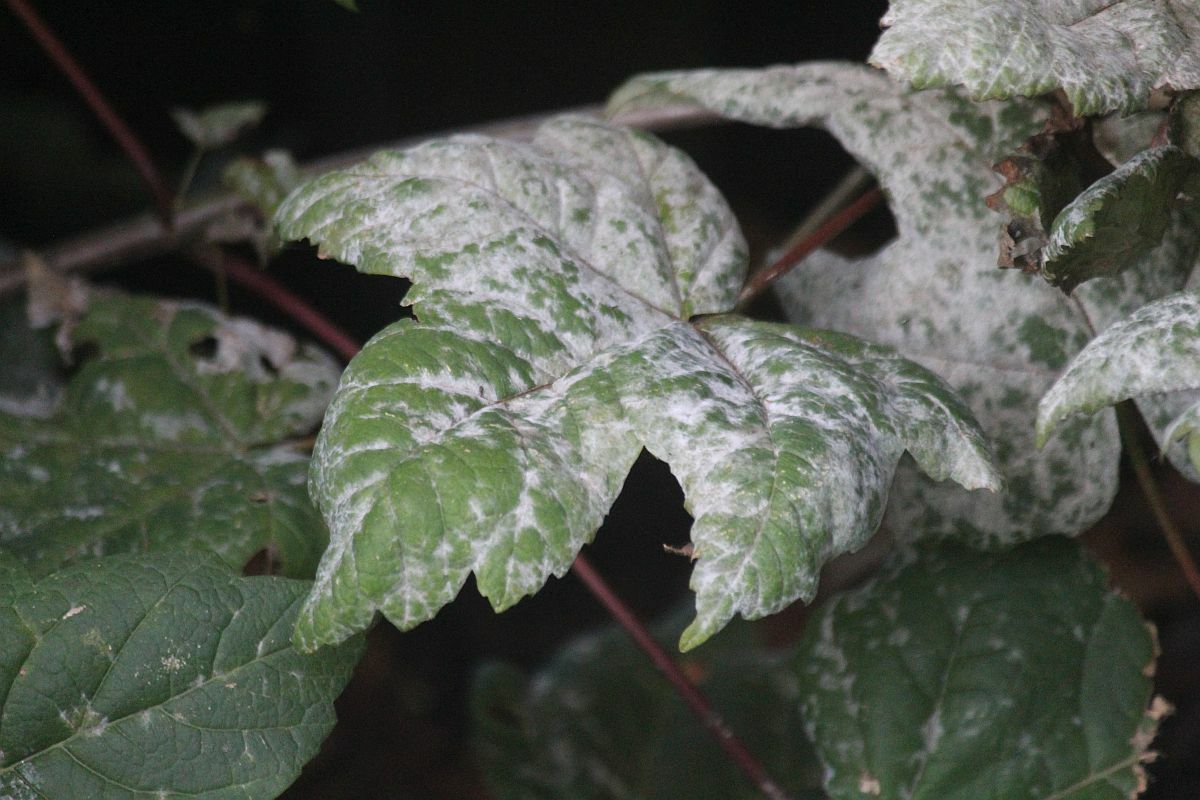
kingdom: Fungi
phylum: Ascomycota
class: Leotiomycetes
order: Helotiales
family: Erysiphaceae
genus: Sawadaea
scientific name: Sawadaea bicornis
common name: Maple mildew
